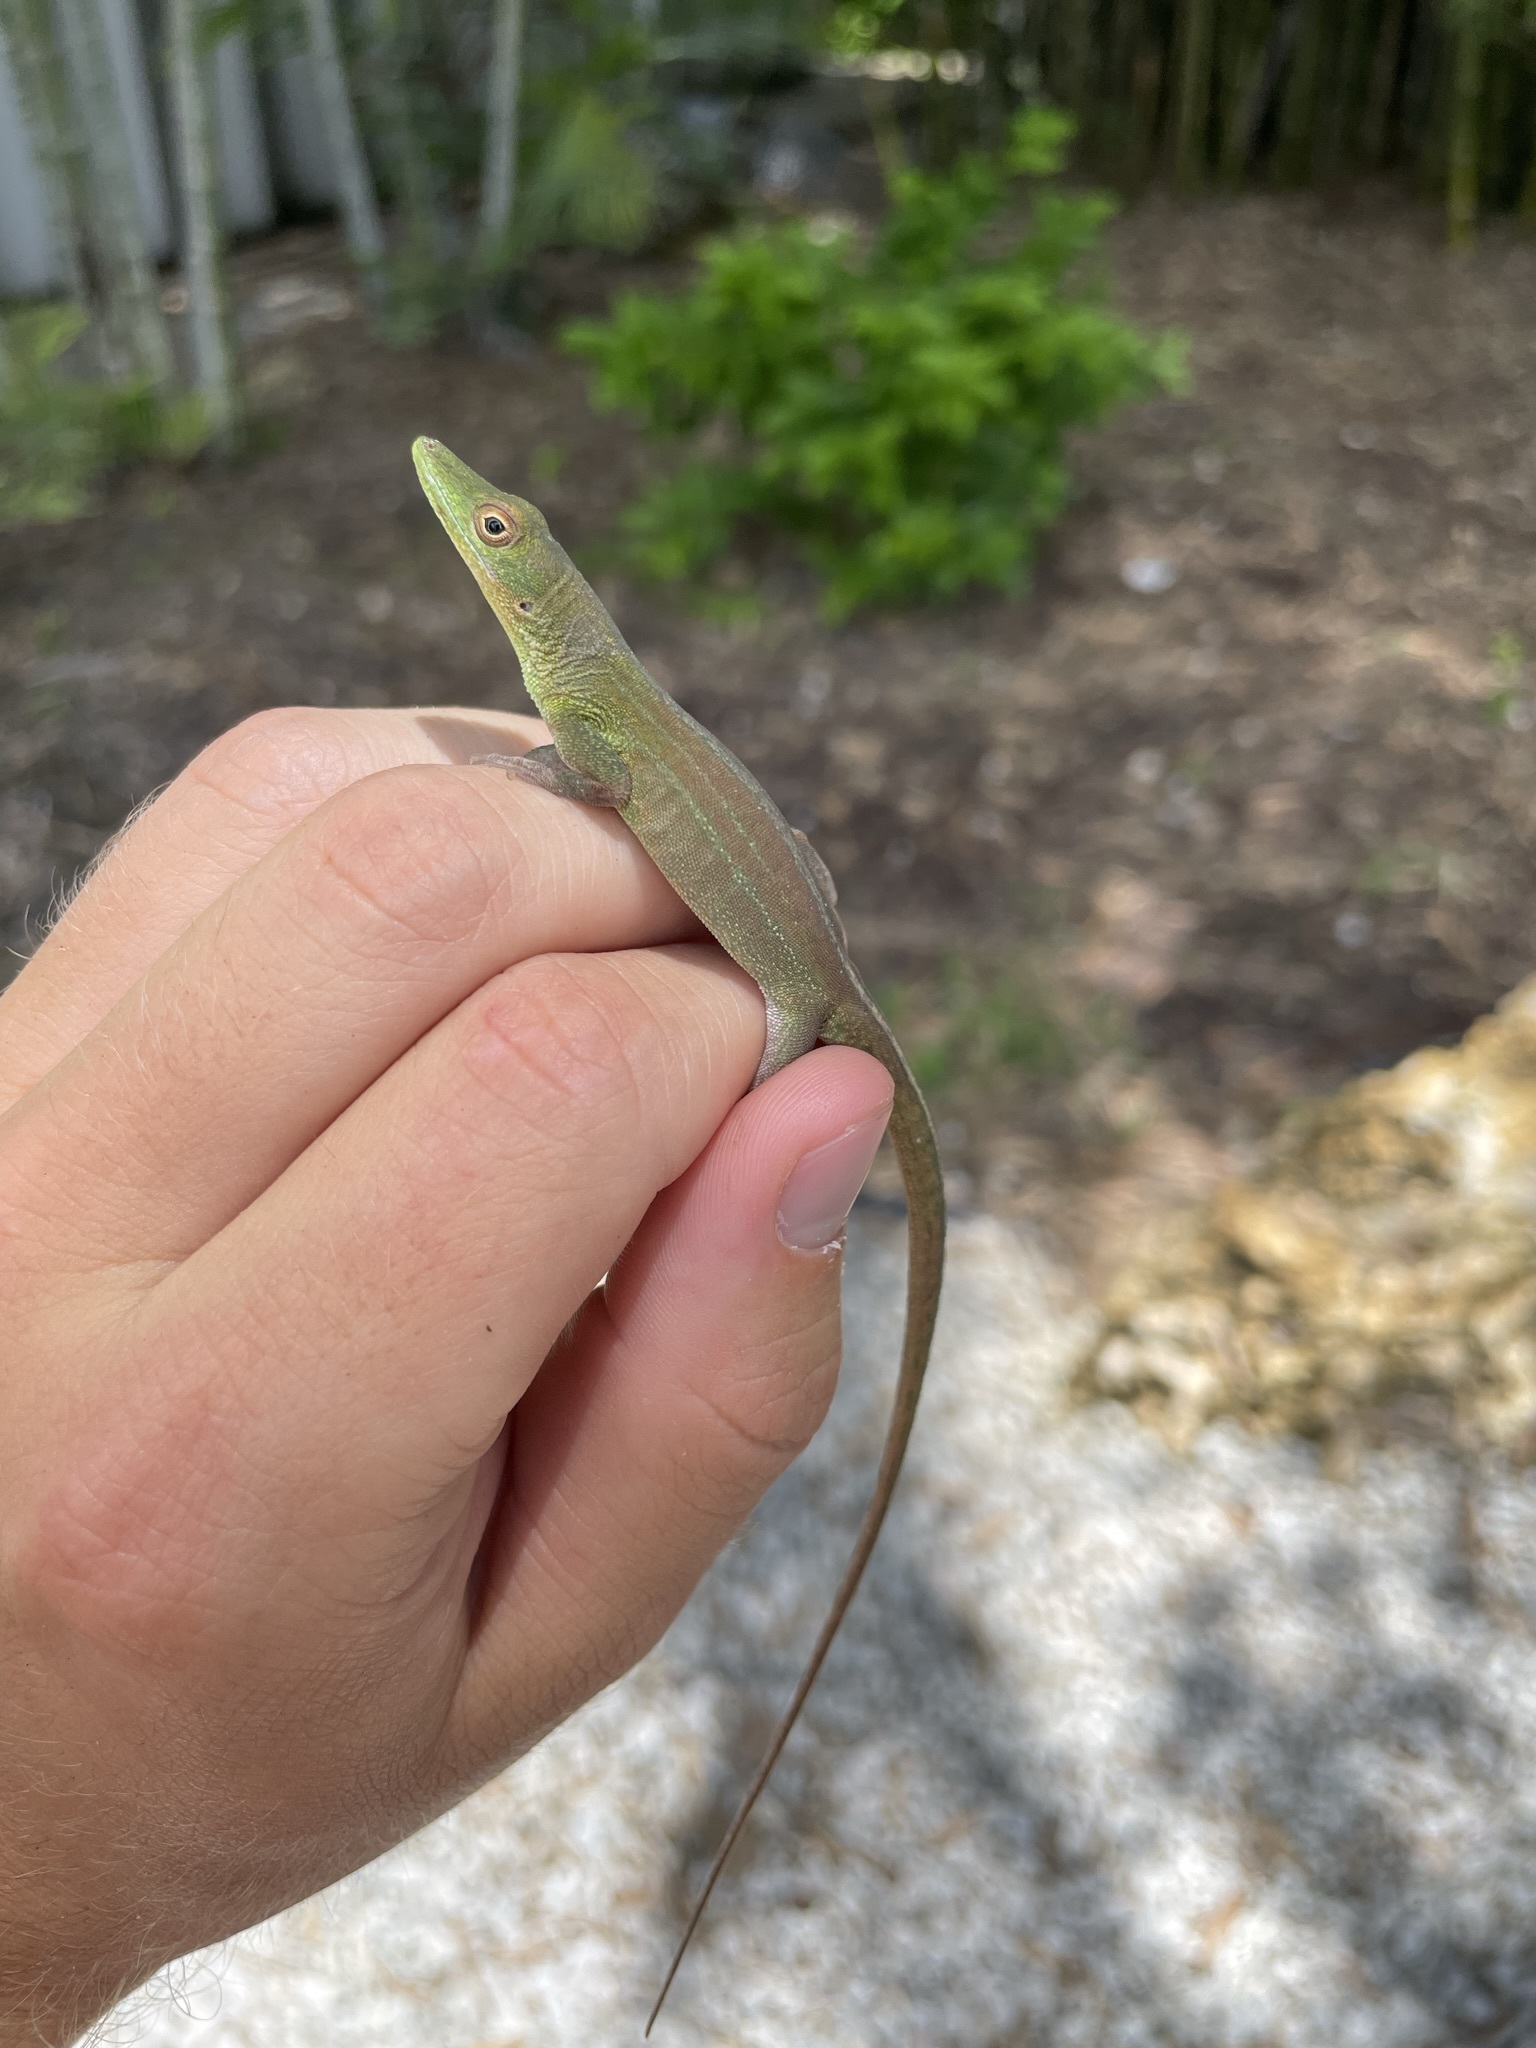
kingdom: Animalia
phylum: Chordata
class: Squamata
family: Dactyloidae
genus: Anolis
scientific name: Anolis chlorocyanus
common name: Hispaniolan green anole
